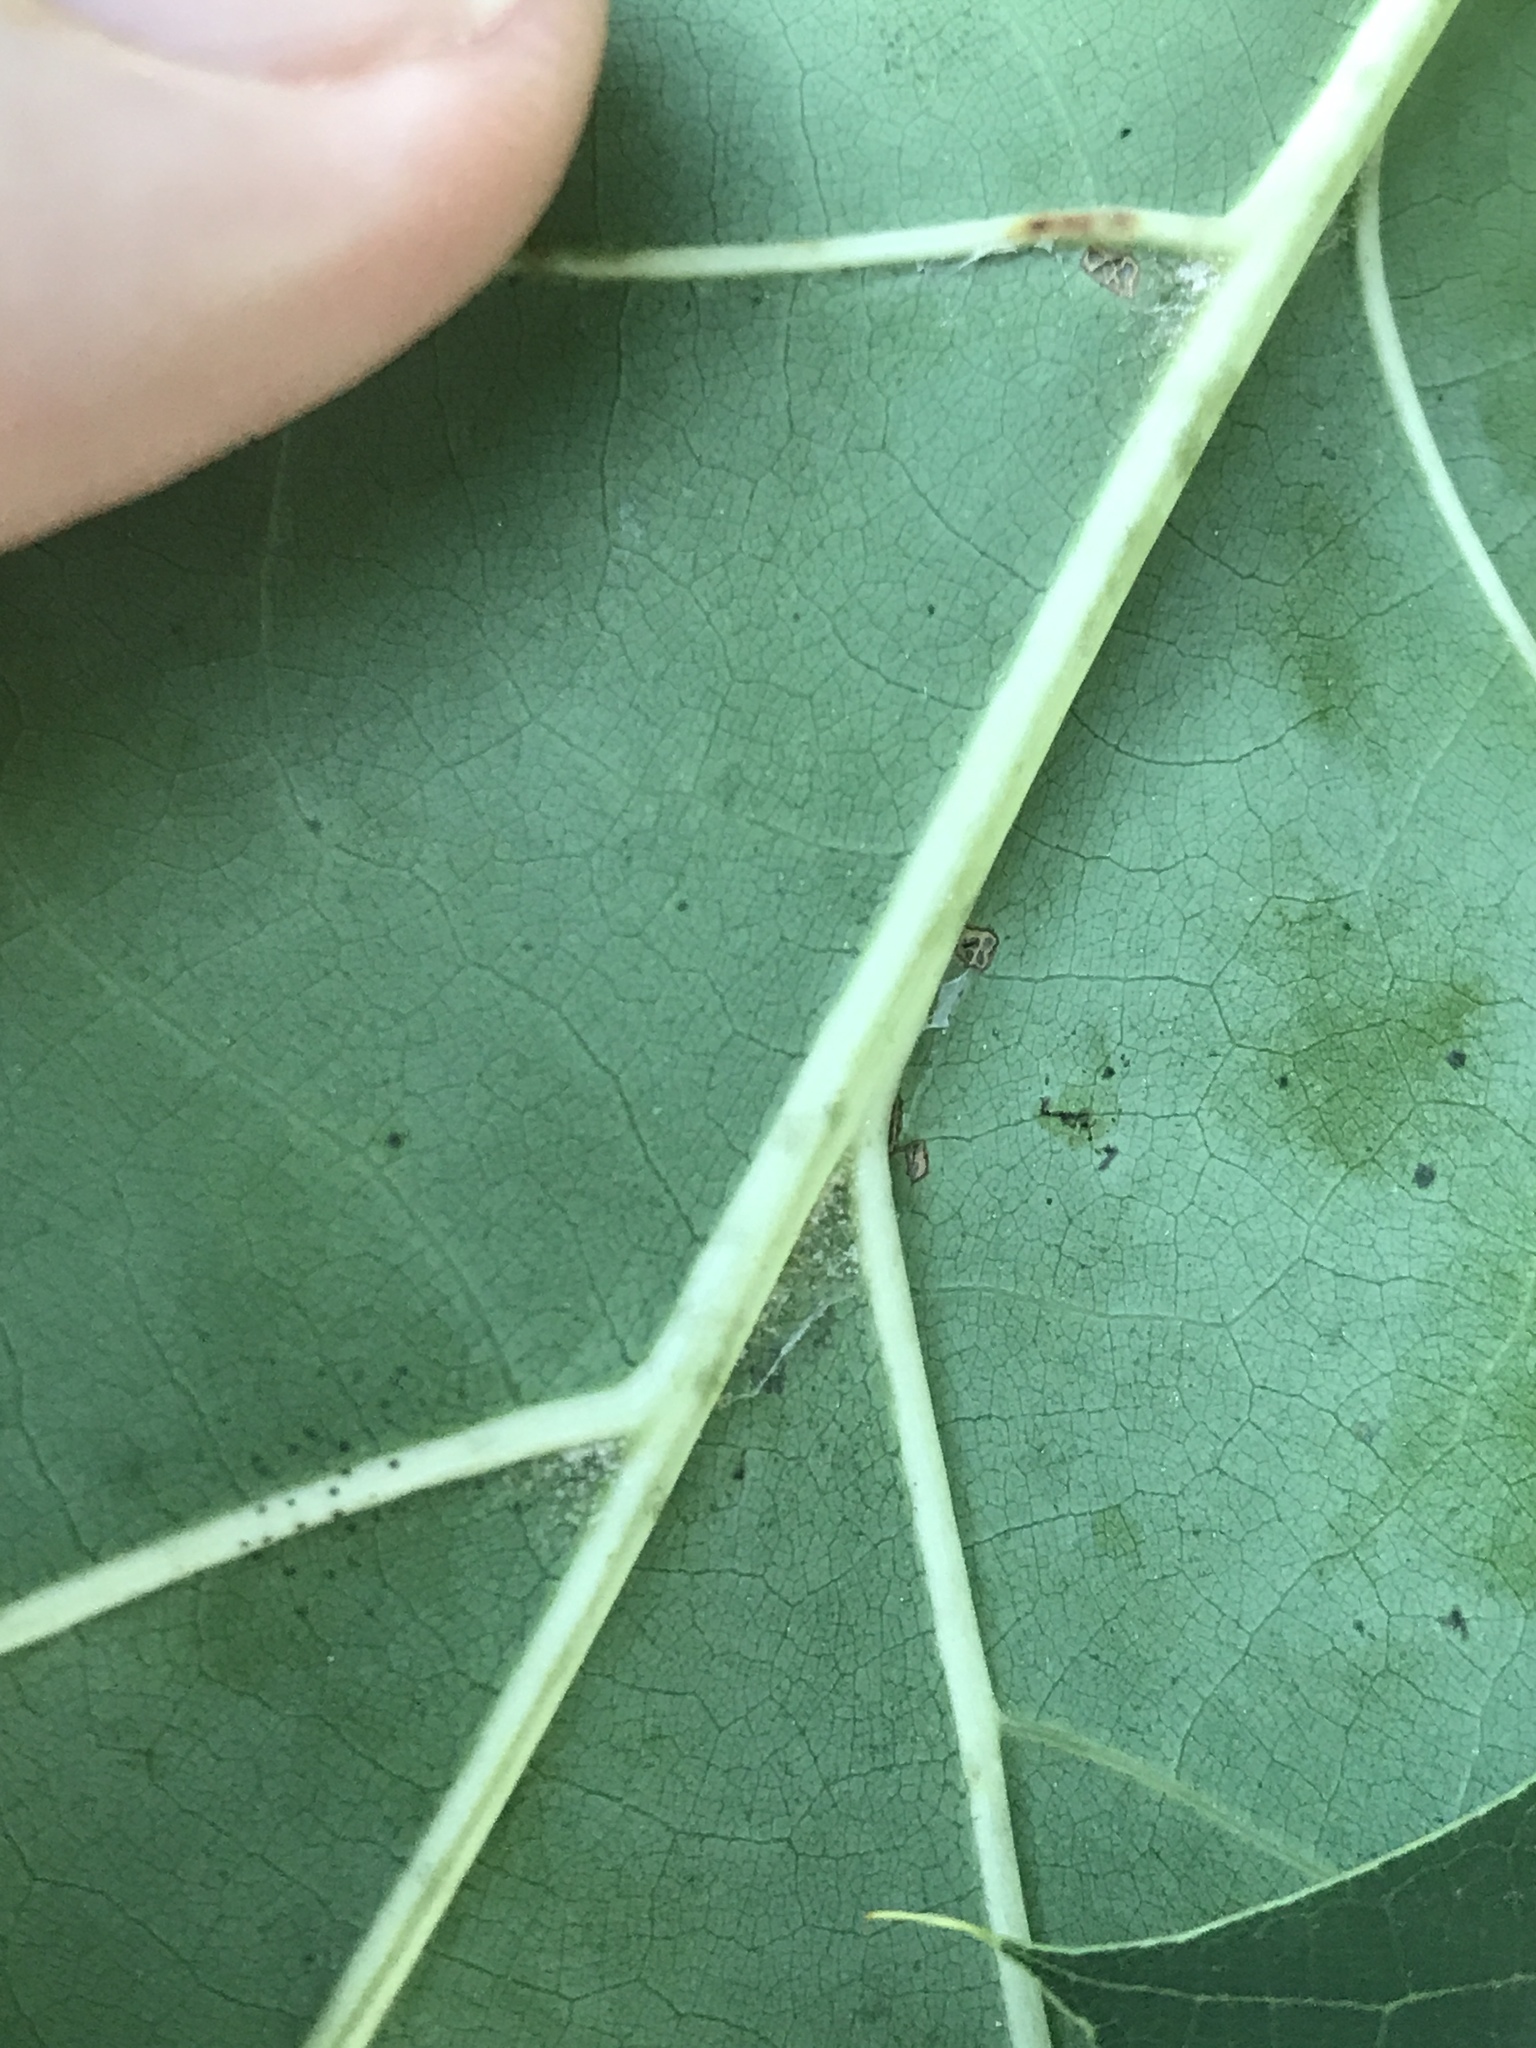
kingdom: Plantae
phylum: Tracheophyta
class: Magnoliopsida
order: Fagales
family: Fagaceae
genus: Quercus
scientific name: Quercus rubra
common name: Red oak
